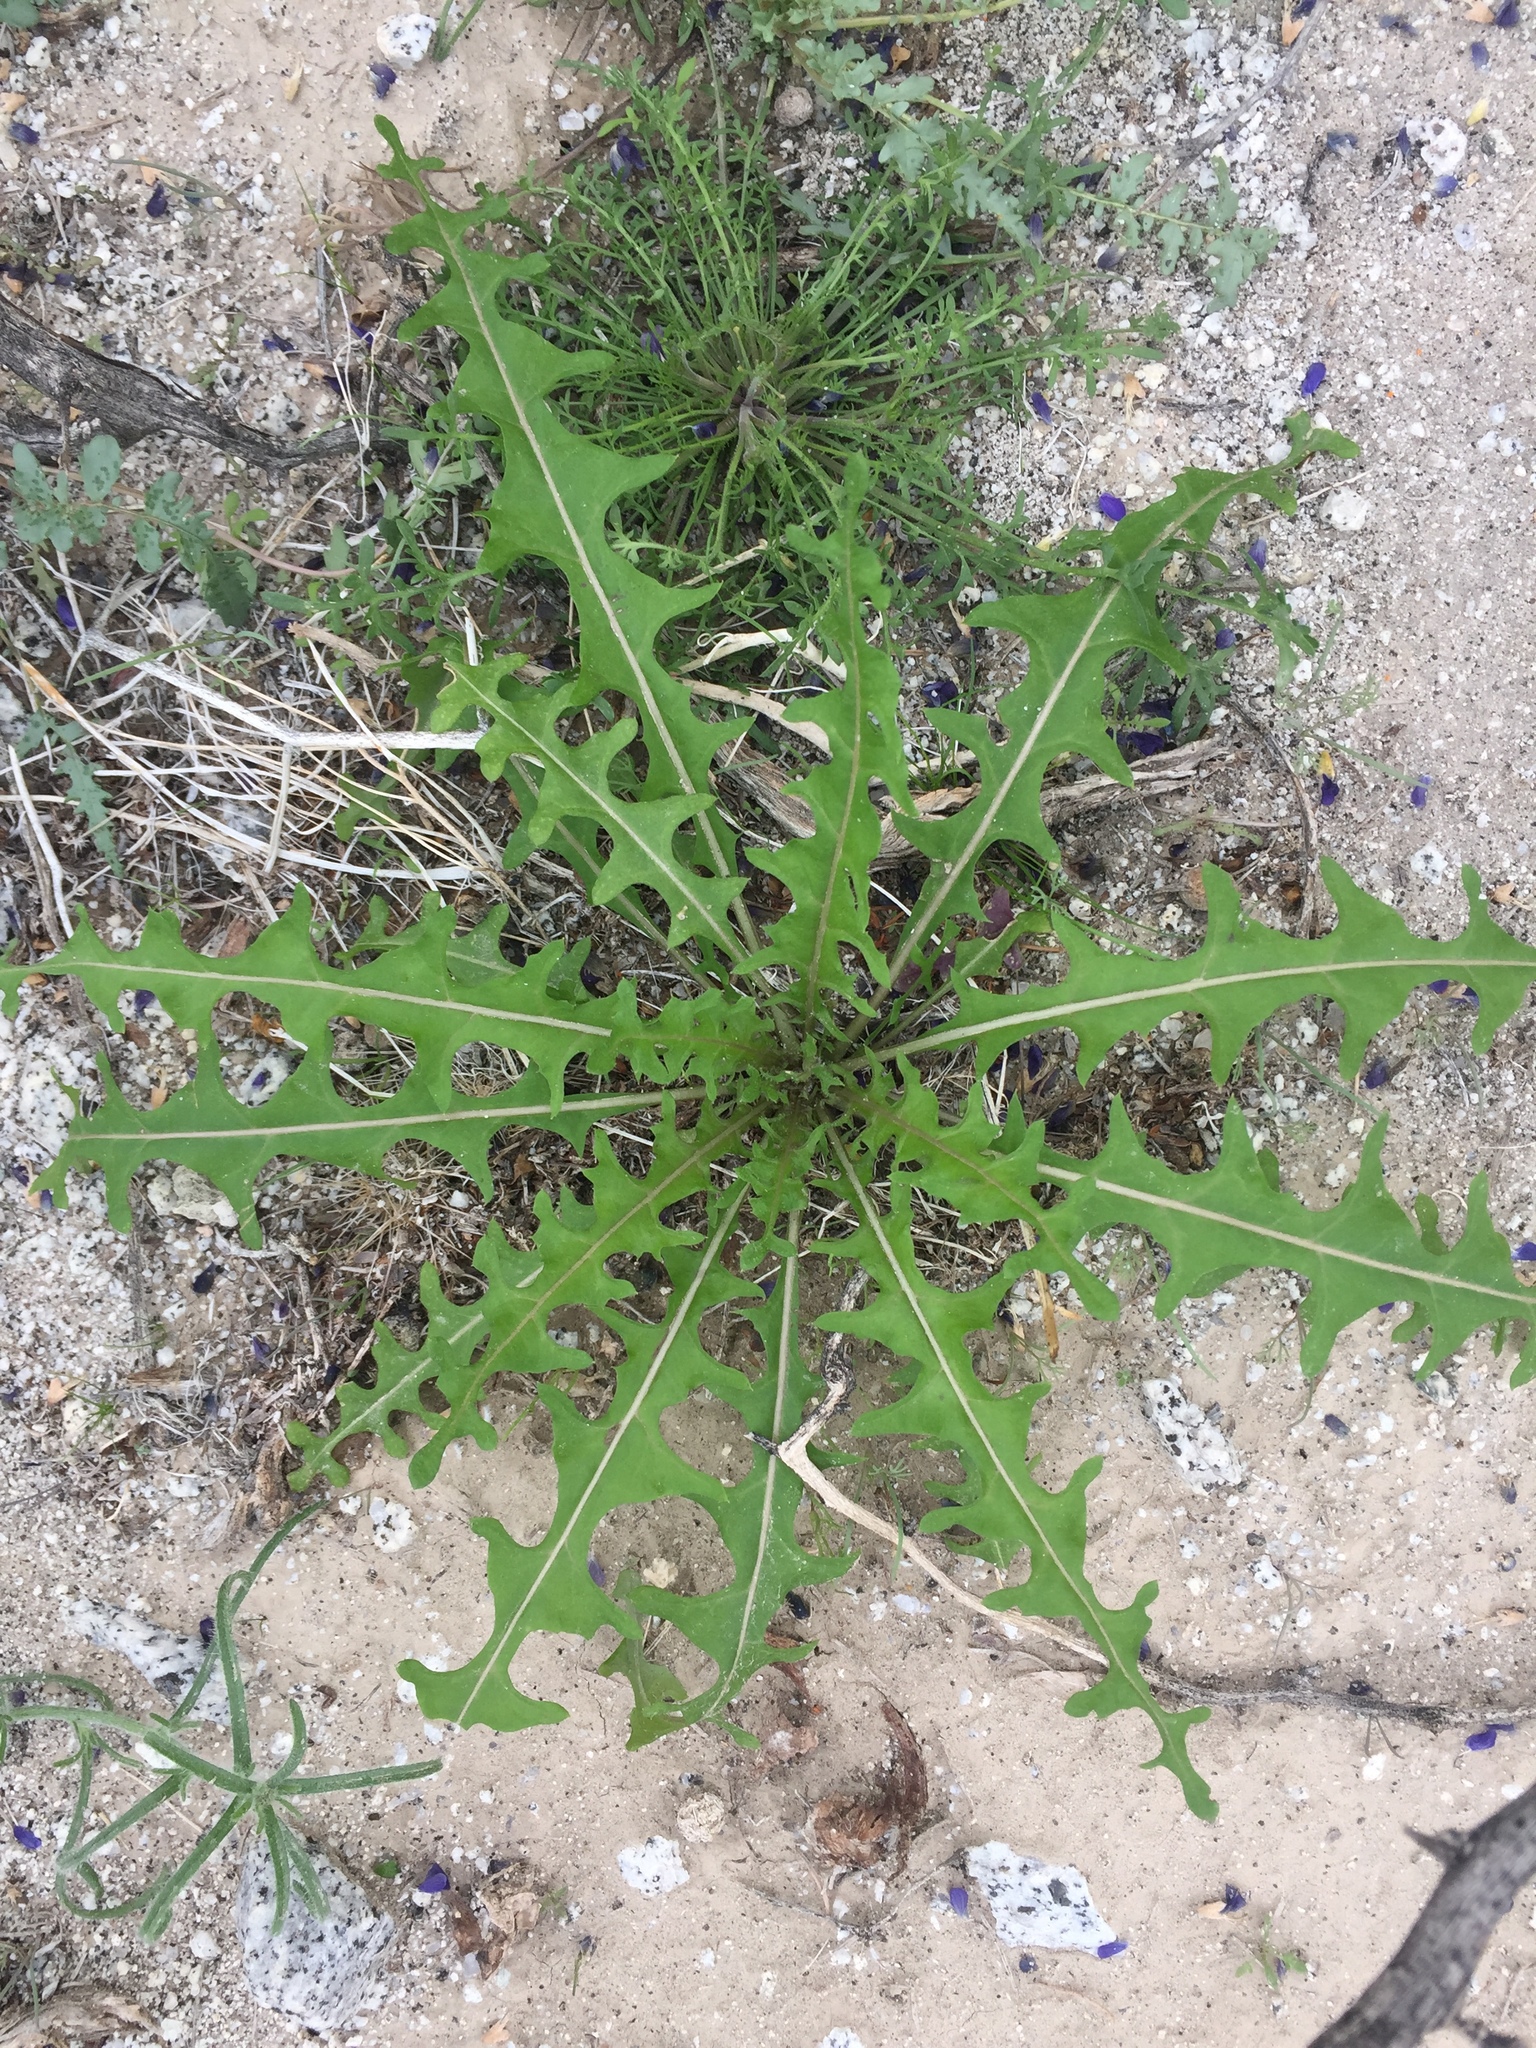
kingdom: Plantae
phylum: Tracheophyta
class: Magnoliopsida
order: Brassicales
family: Brassicaceae
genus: Streptanthus
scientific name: Streptanthus lasiophyllus
